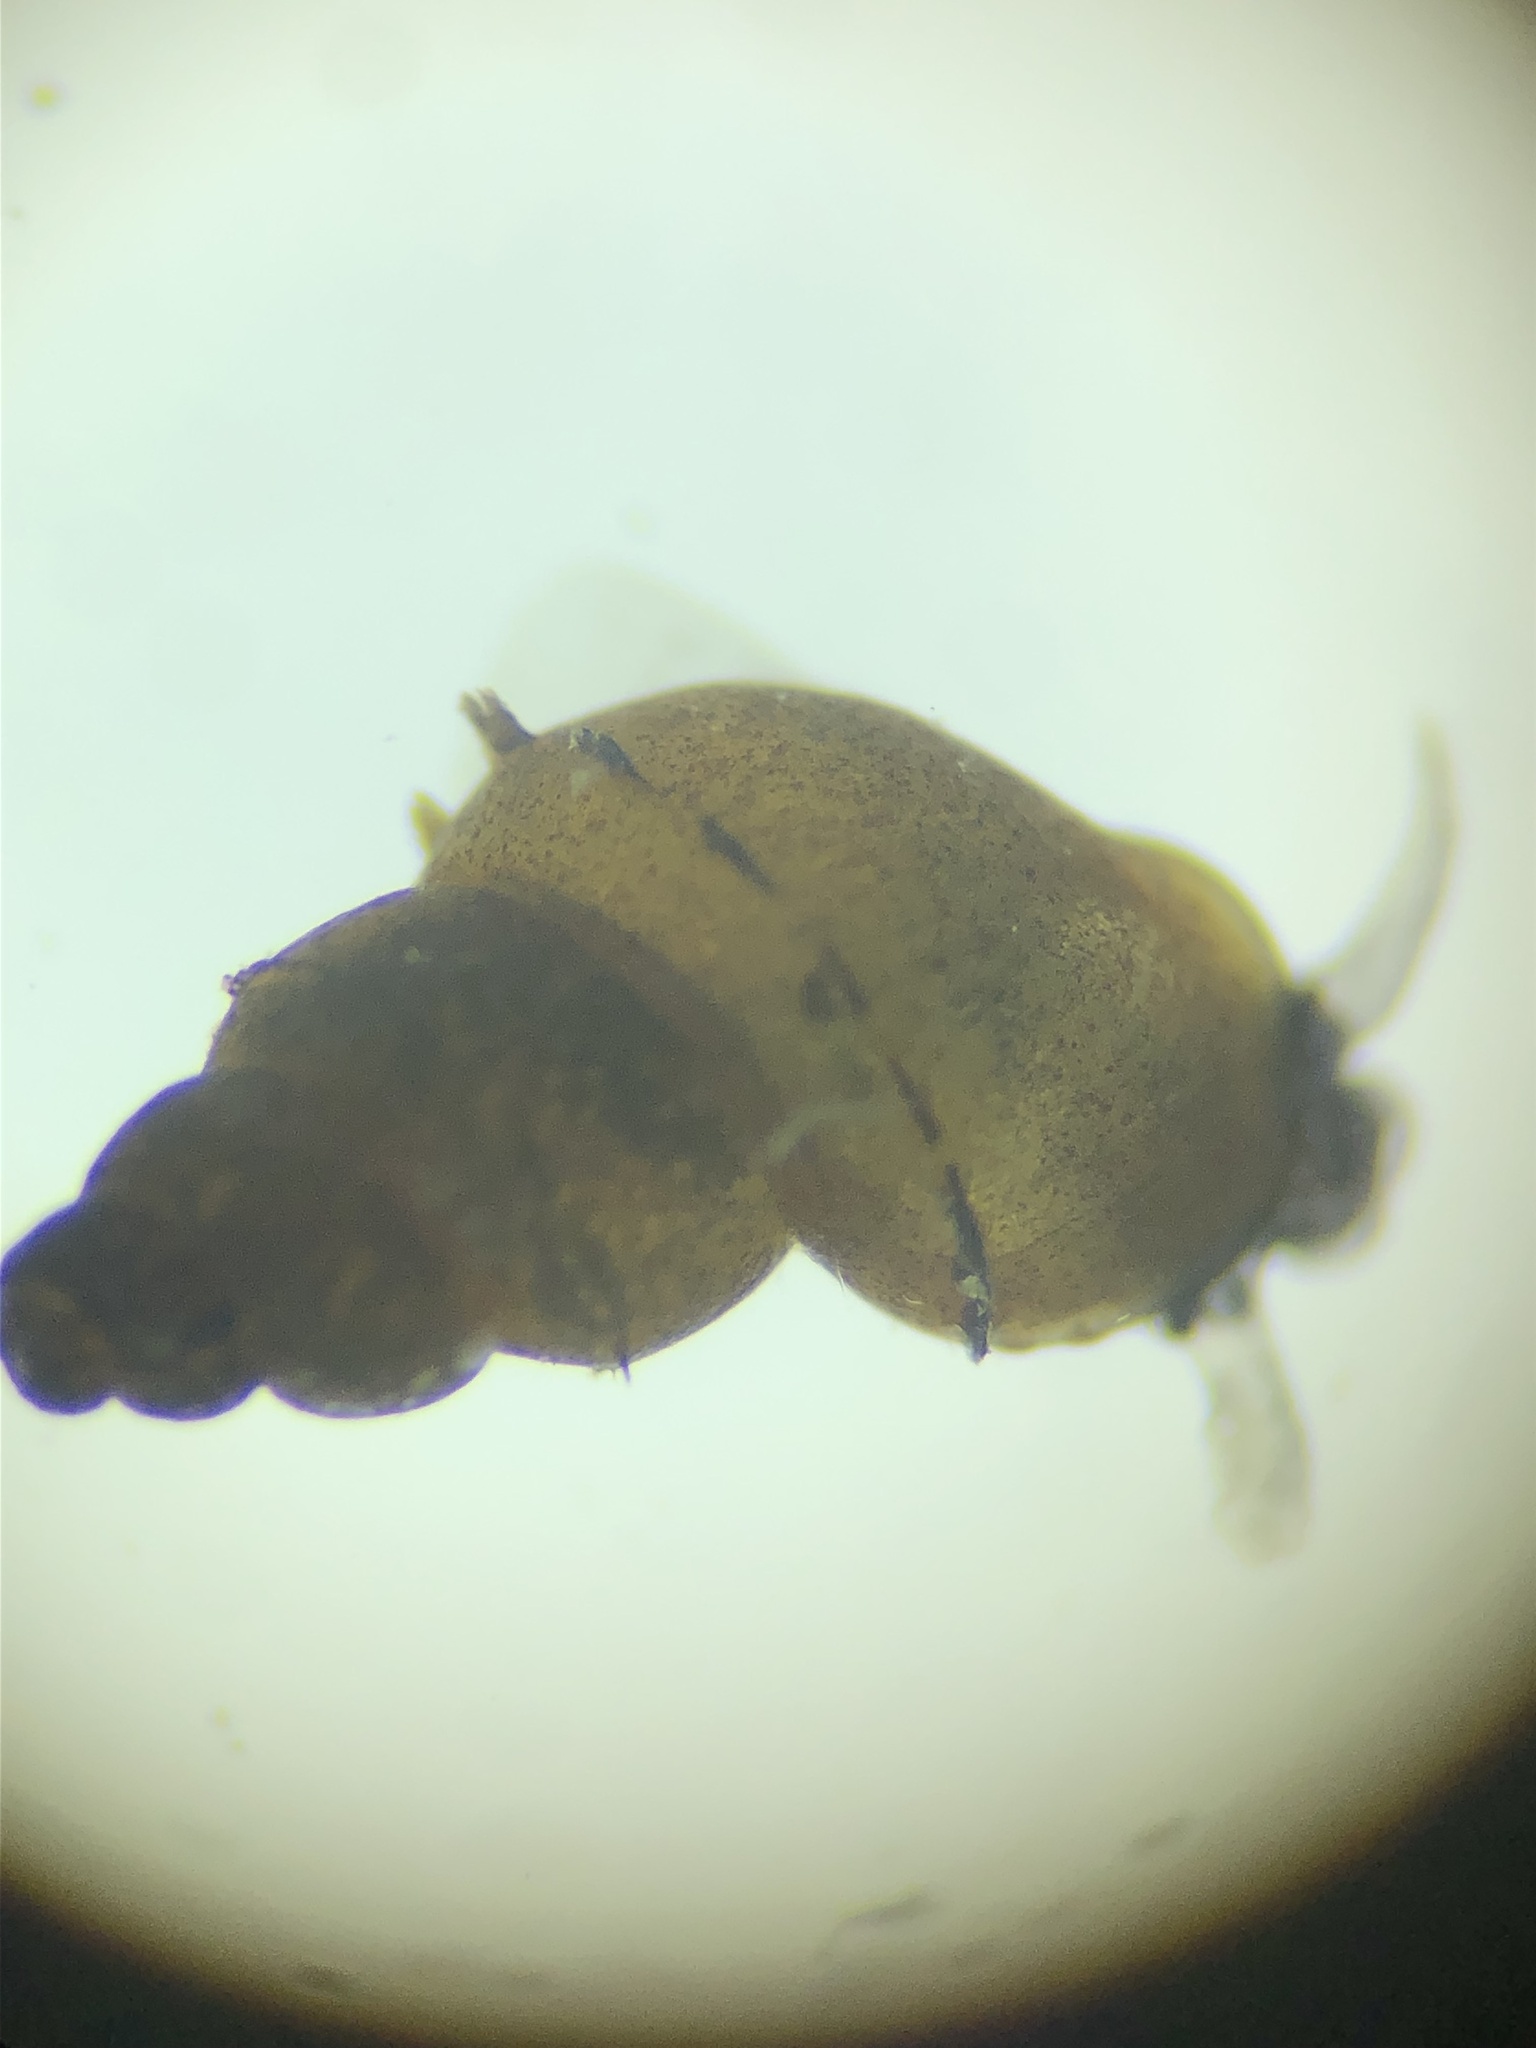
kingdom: Animalia
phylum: Mollusca
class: Gastropoda
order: Littorinimorpha
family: Tateidae
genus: Potamopyrgus
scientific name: Potamopyrgus antipodarum
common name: Jenkins' spire snail
